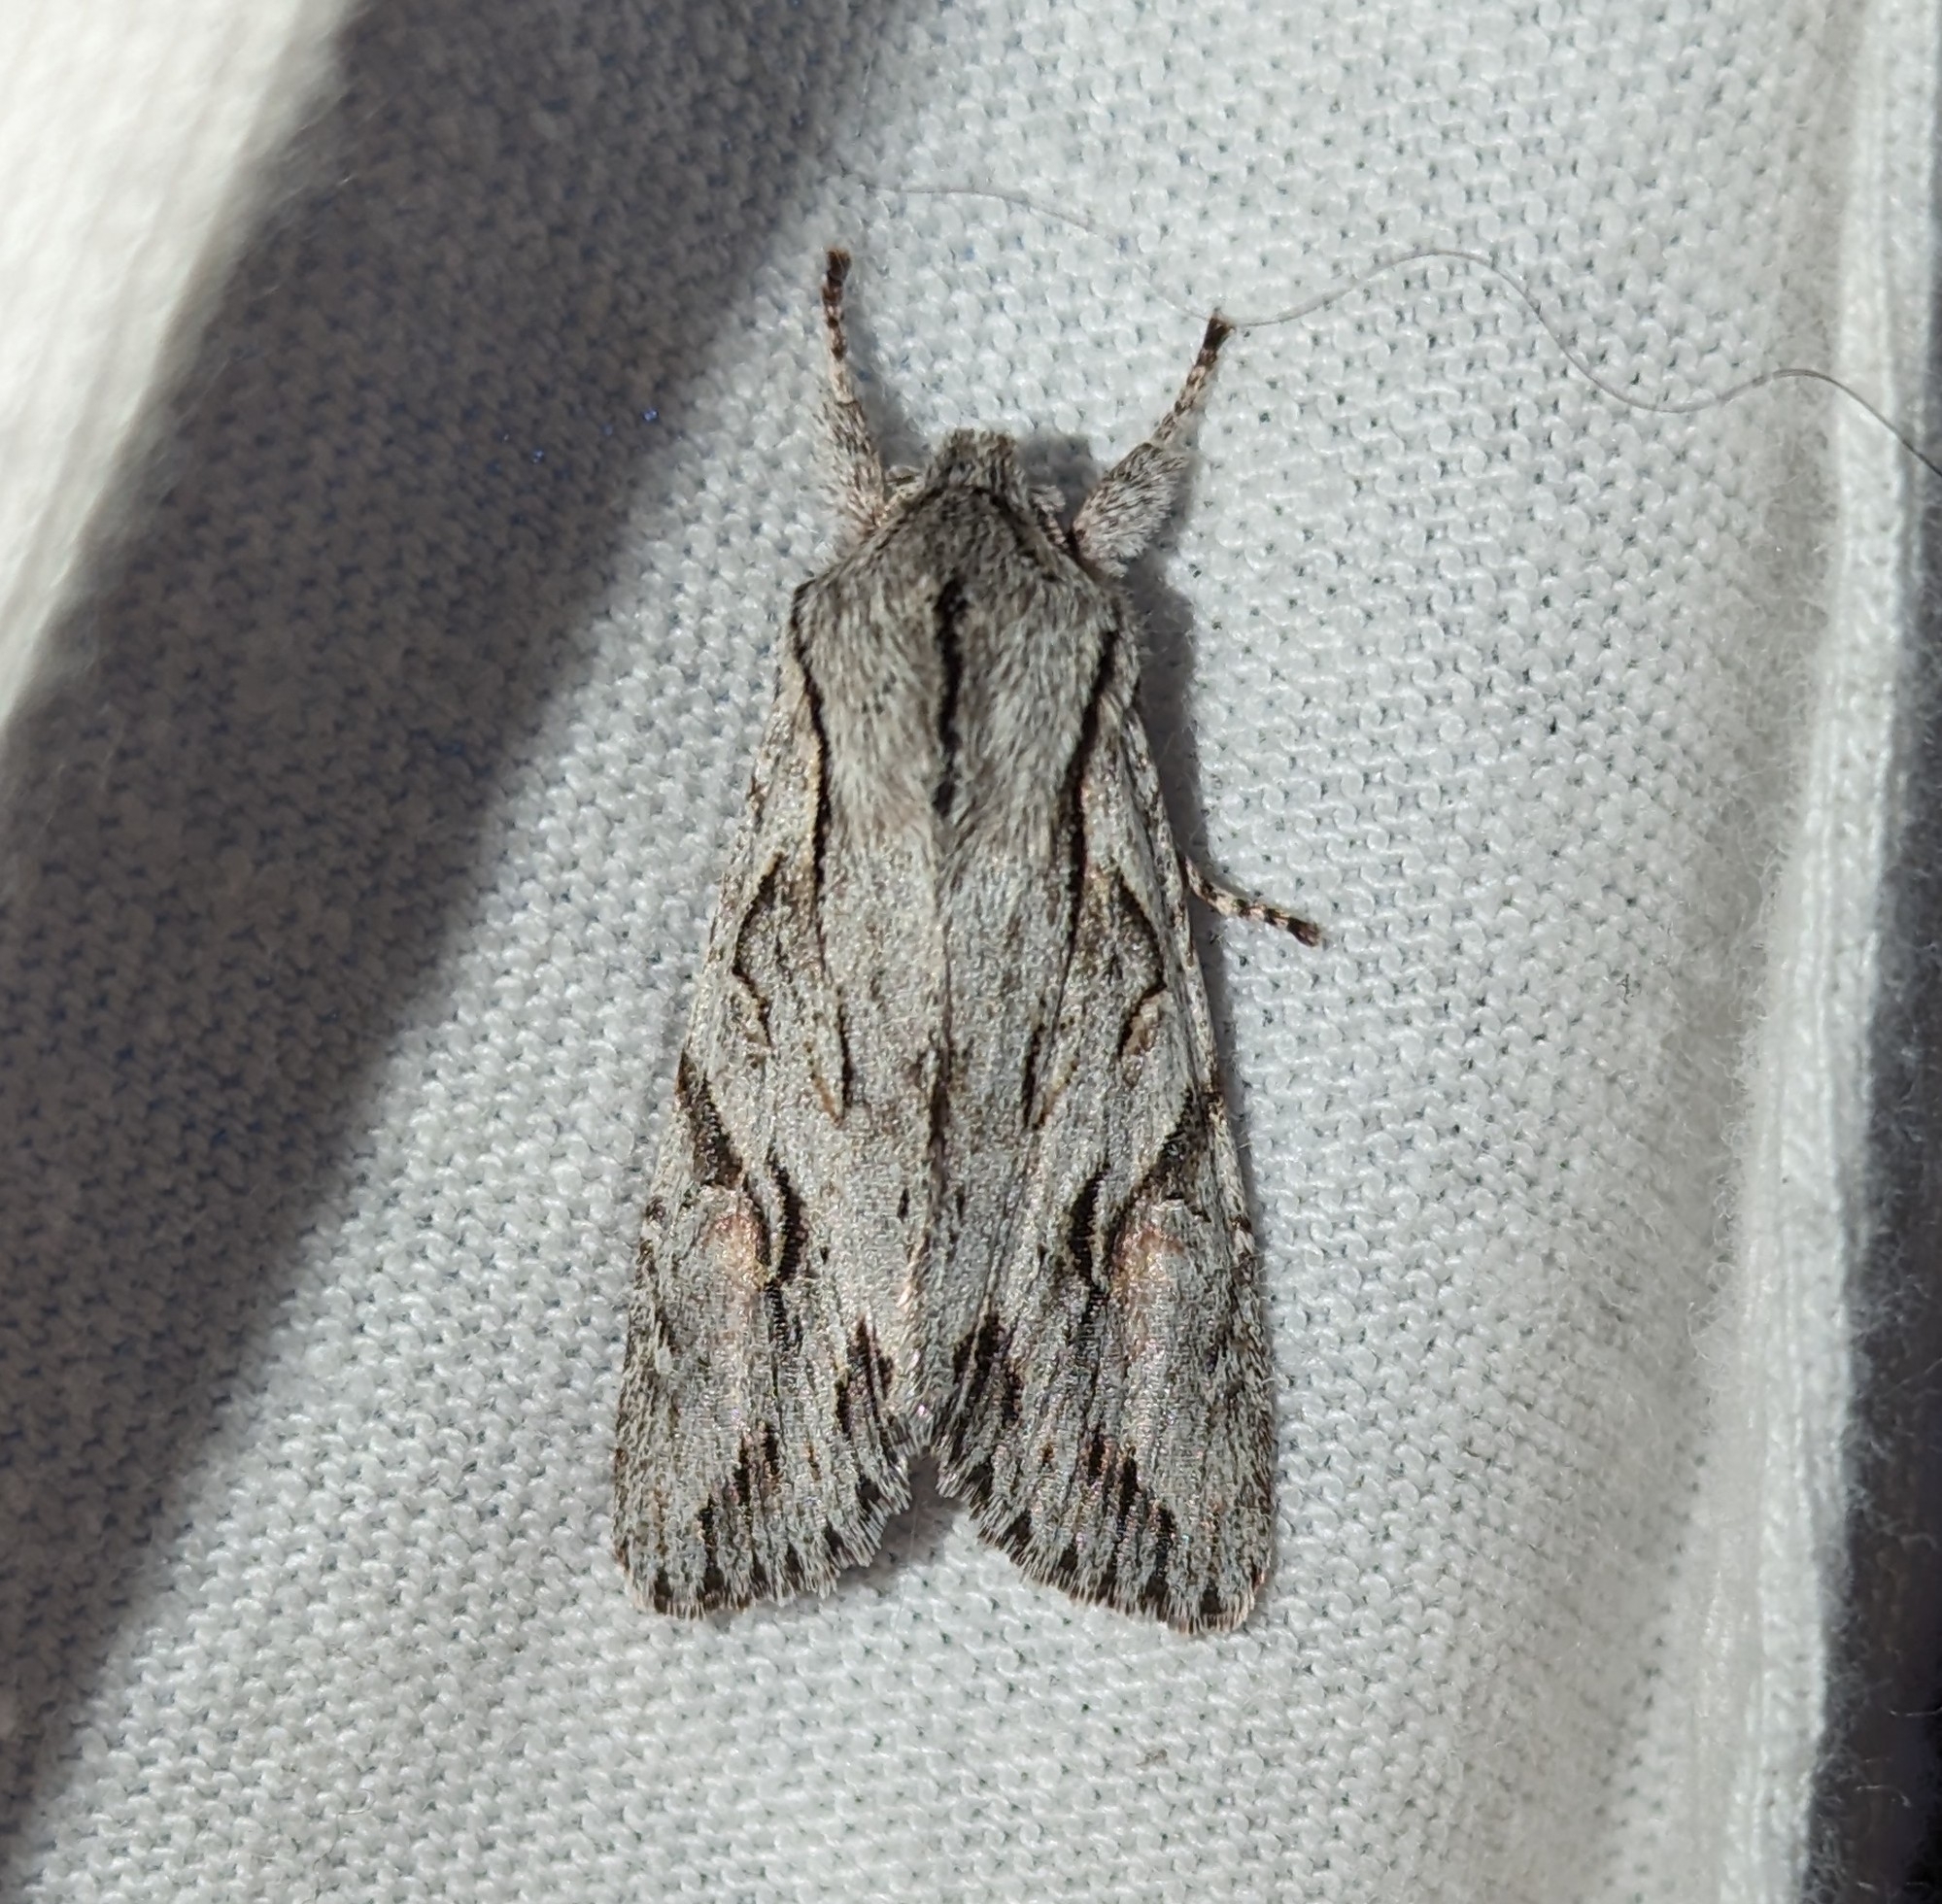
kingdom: Animalia
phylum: Arthropoda
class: Insecta
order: Lepidoptera
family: Noctuidae
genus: Egira
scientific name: Egira crucialis
